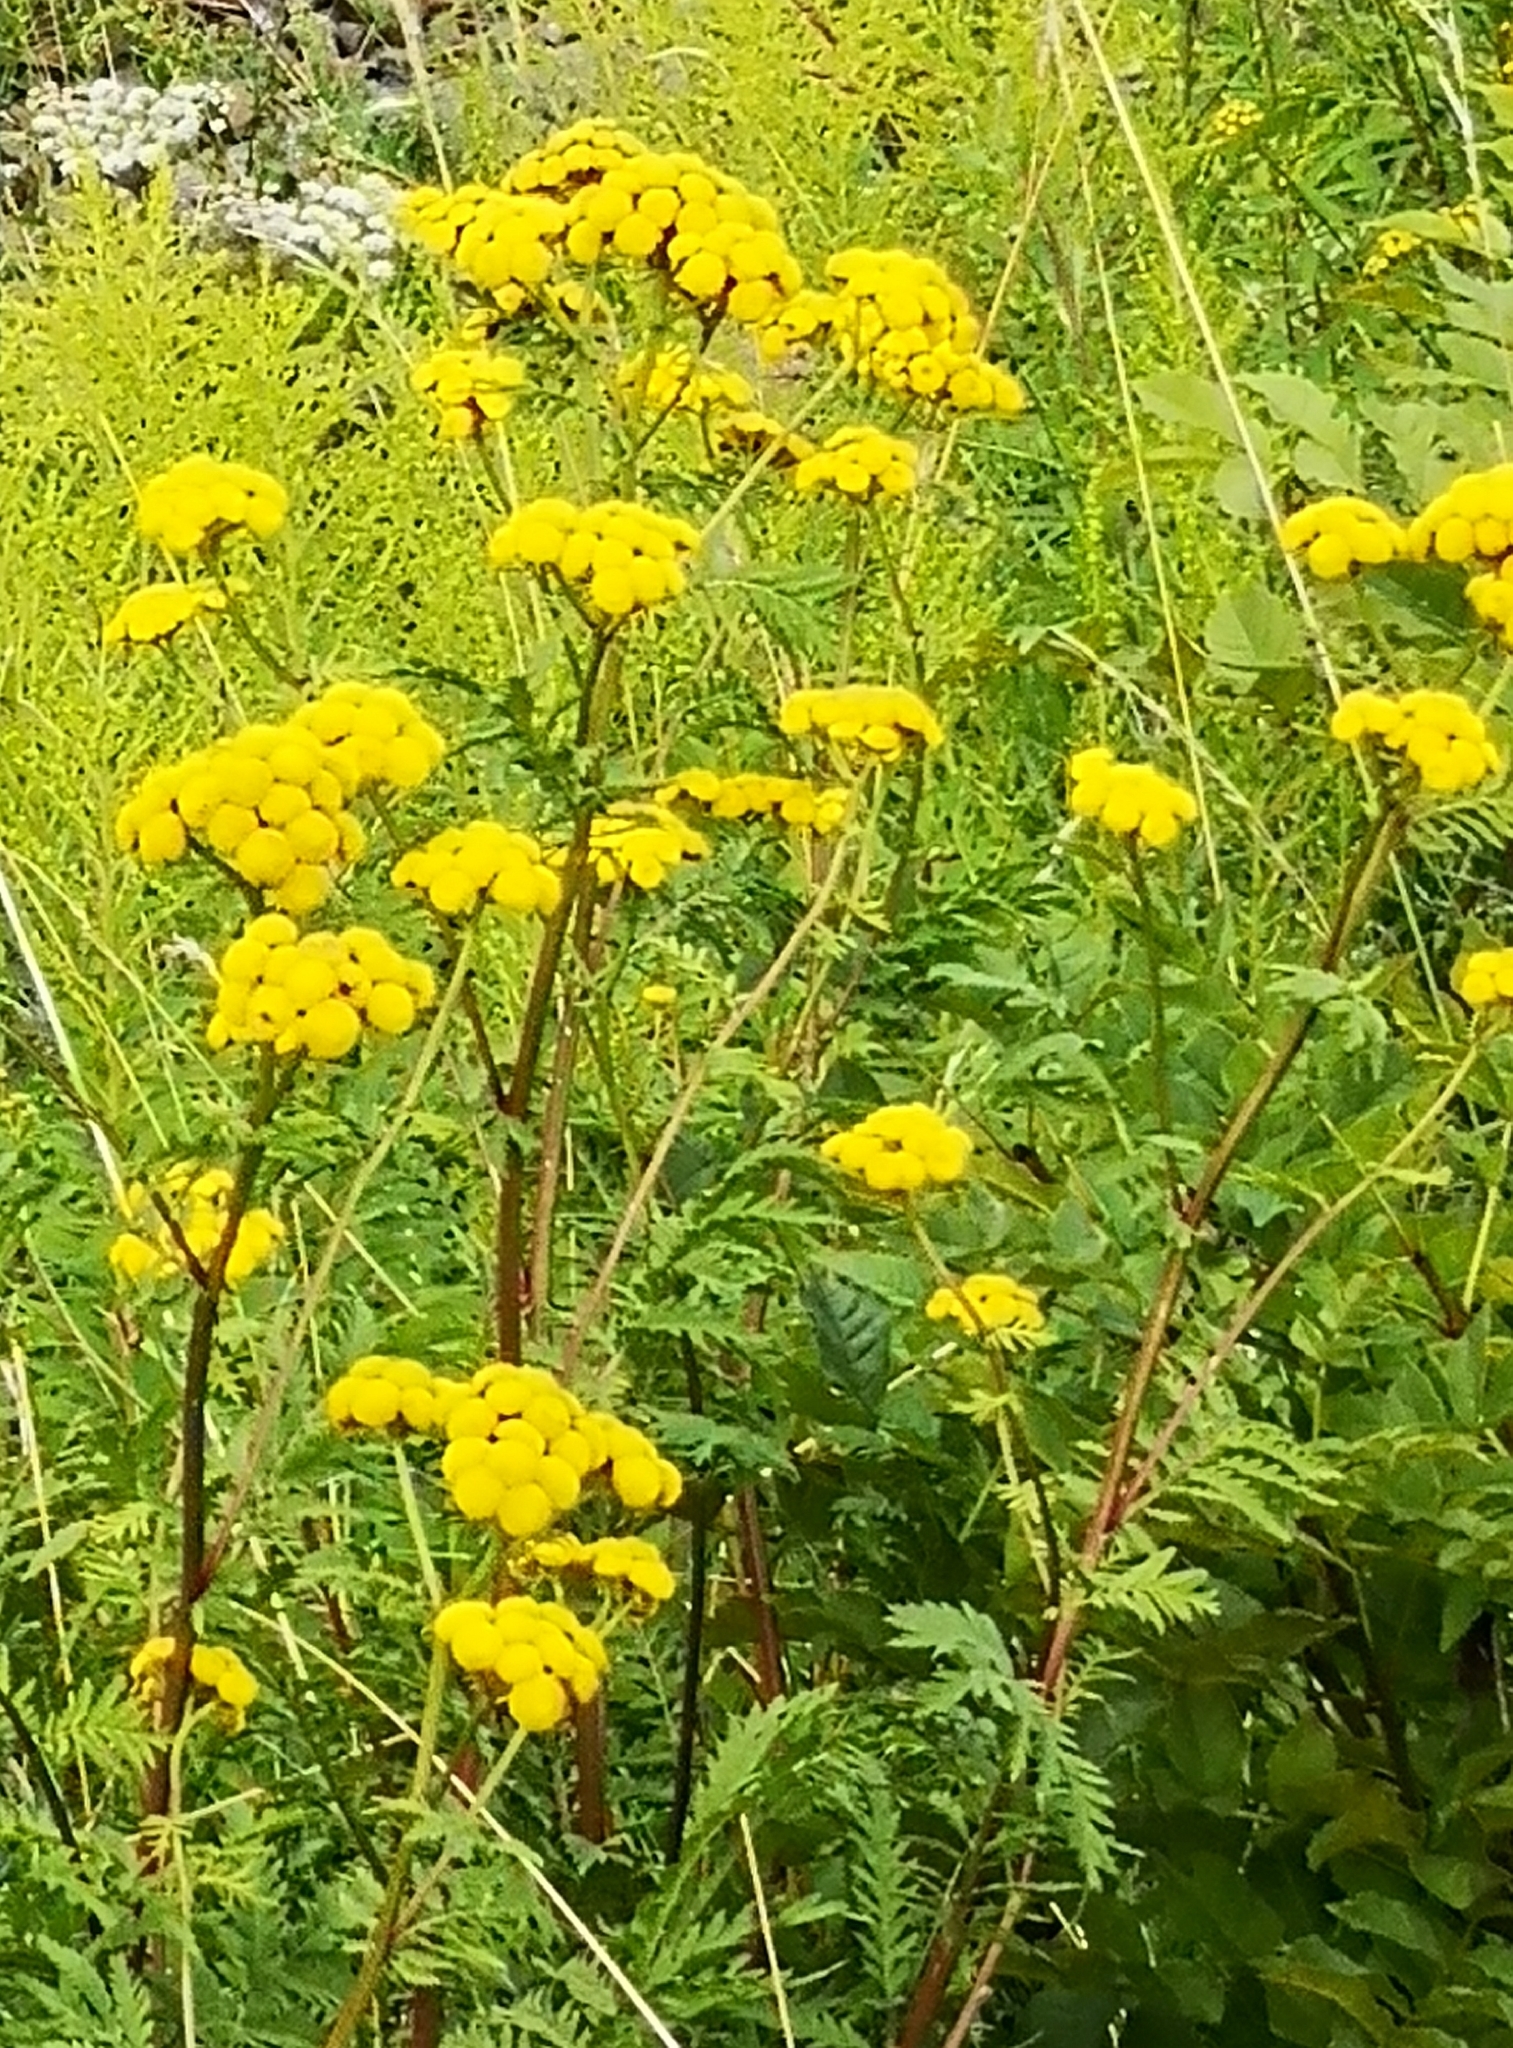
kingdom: Plantae
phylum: Tracheophyta
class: Magnoliopsida
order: Asterales
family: Asteraceae
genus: Tanacetum
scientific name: Tanacetum vulgare
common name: Common tansy
